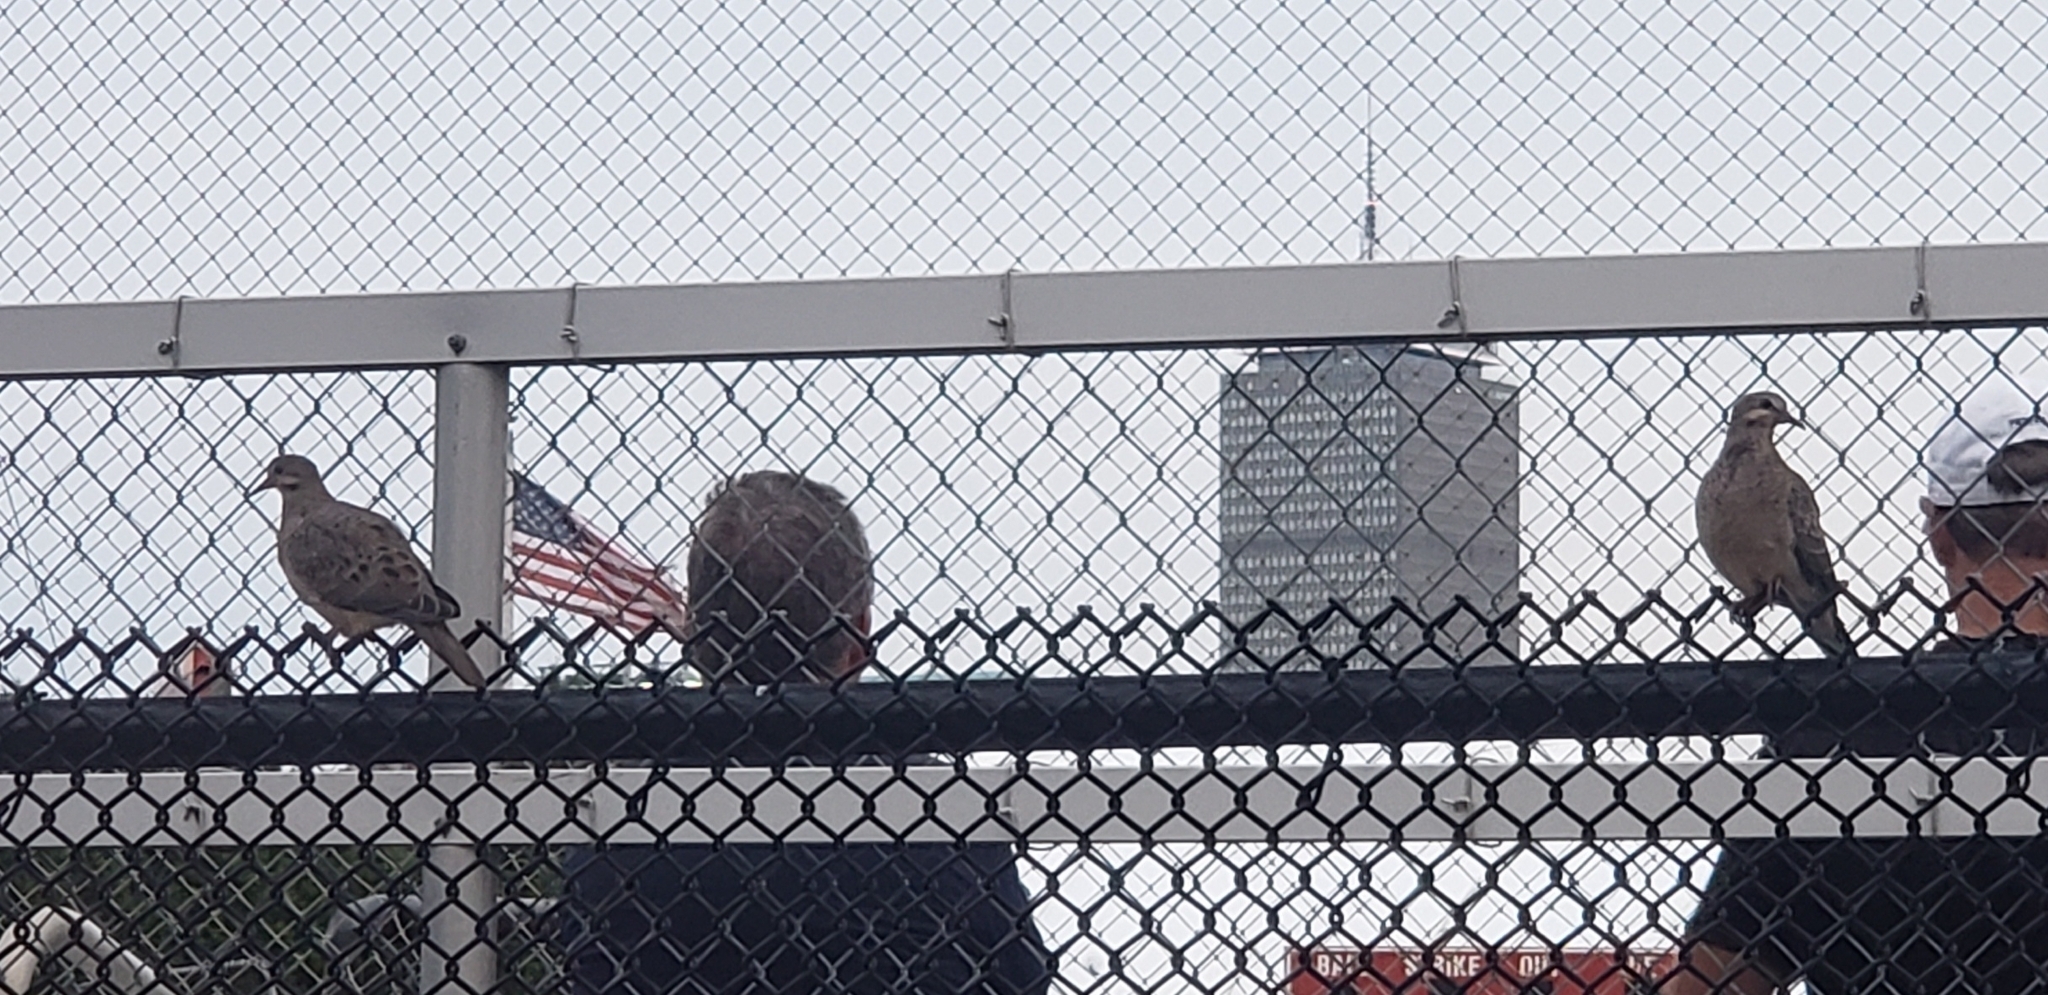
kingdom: Animalia
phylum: Chordata
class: Aves
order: Columbiformes
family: Columbidae
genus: Zenaida
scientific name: Zenaida macroura
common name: Mourning dove
